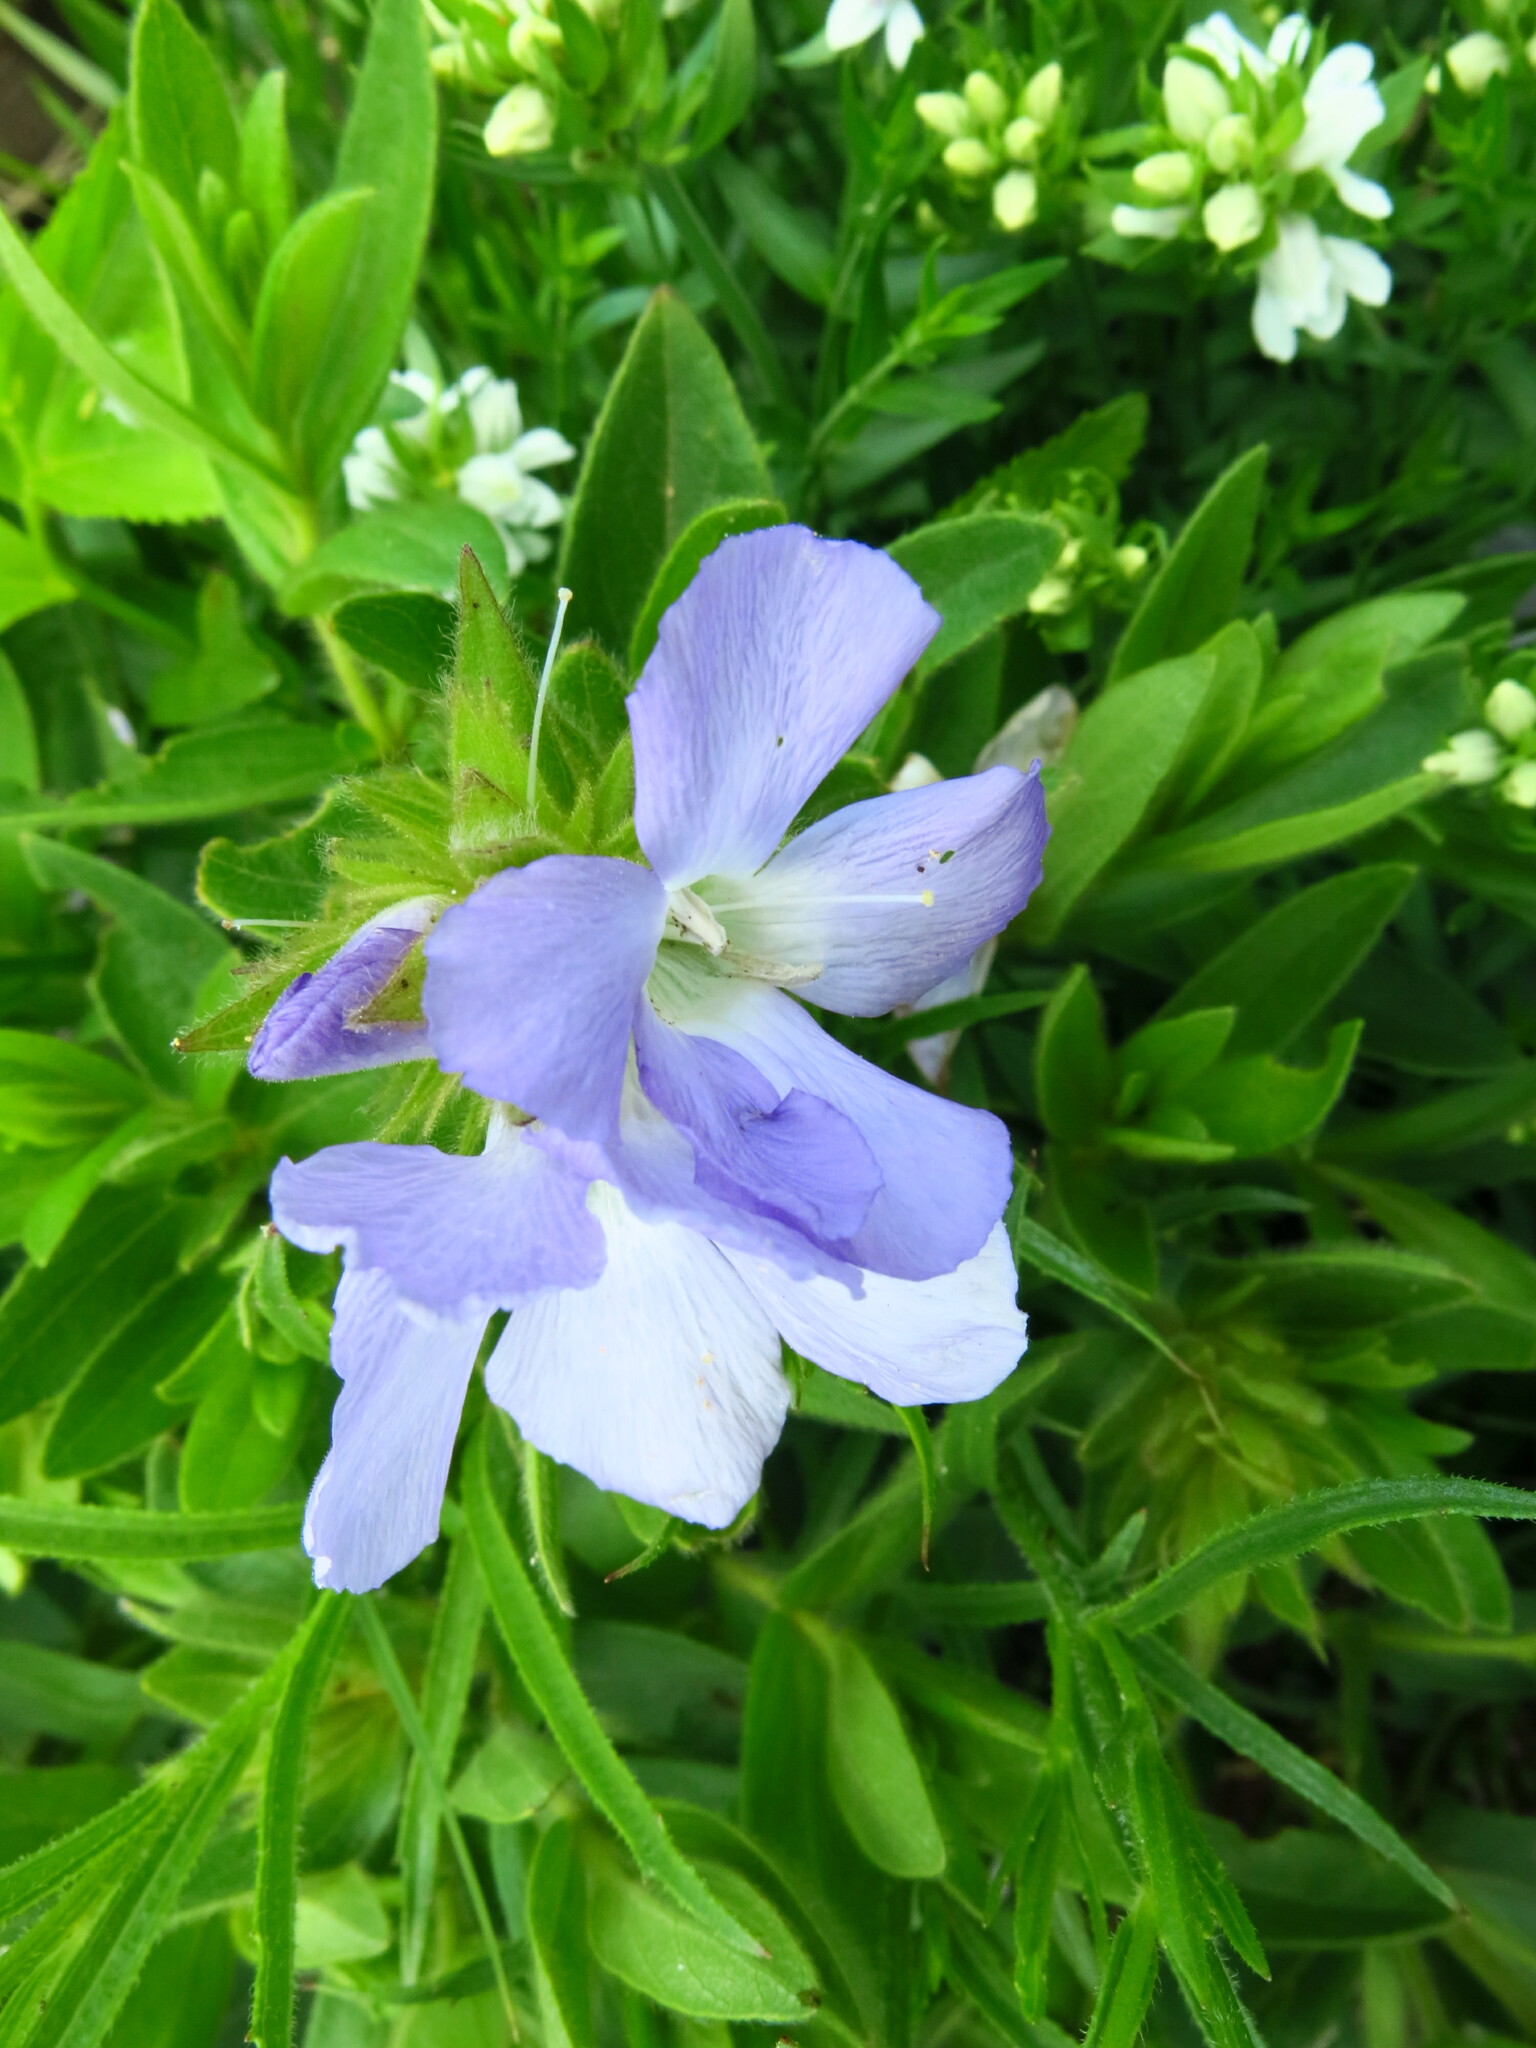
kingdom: Plantae
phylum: Tracheophyta
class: Magnoliopsida
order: Lamiales
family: Acanthaceae
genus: Barleria
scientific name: Barleria monticola
